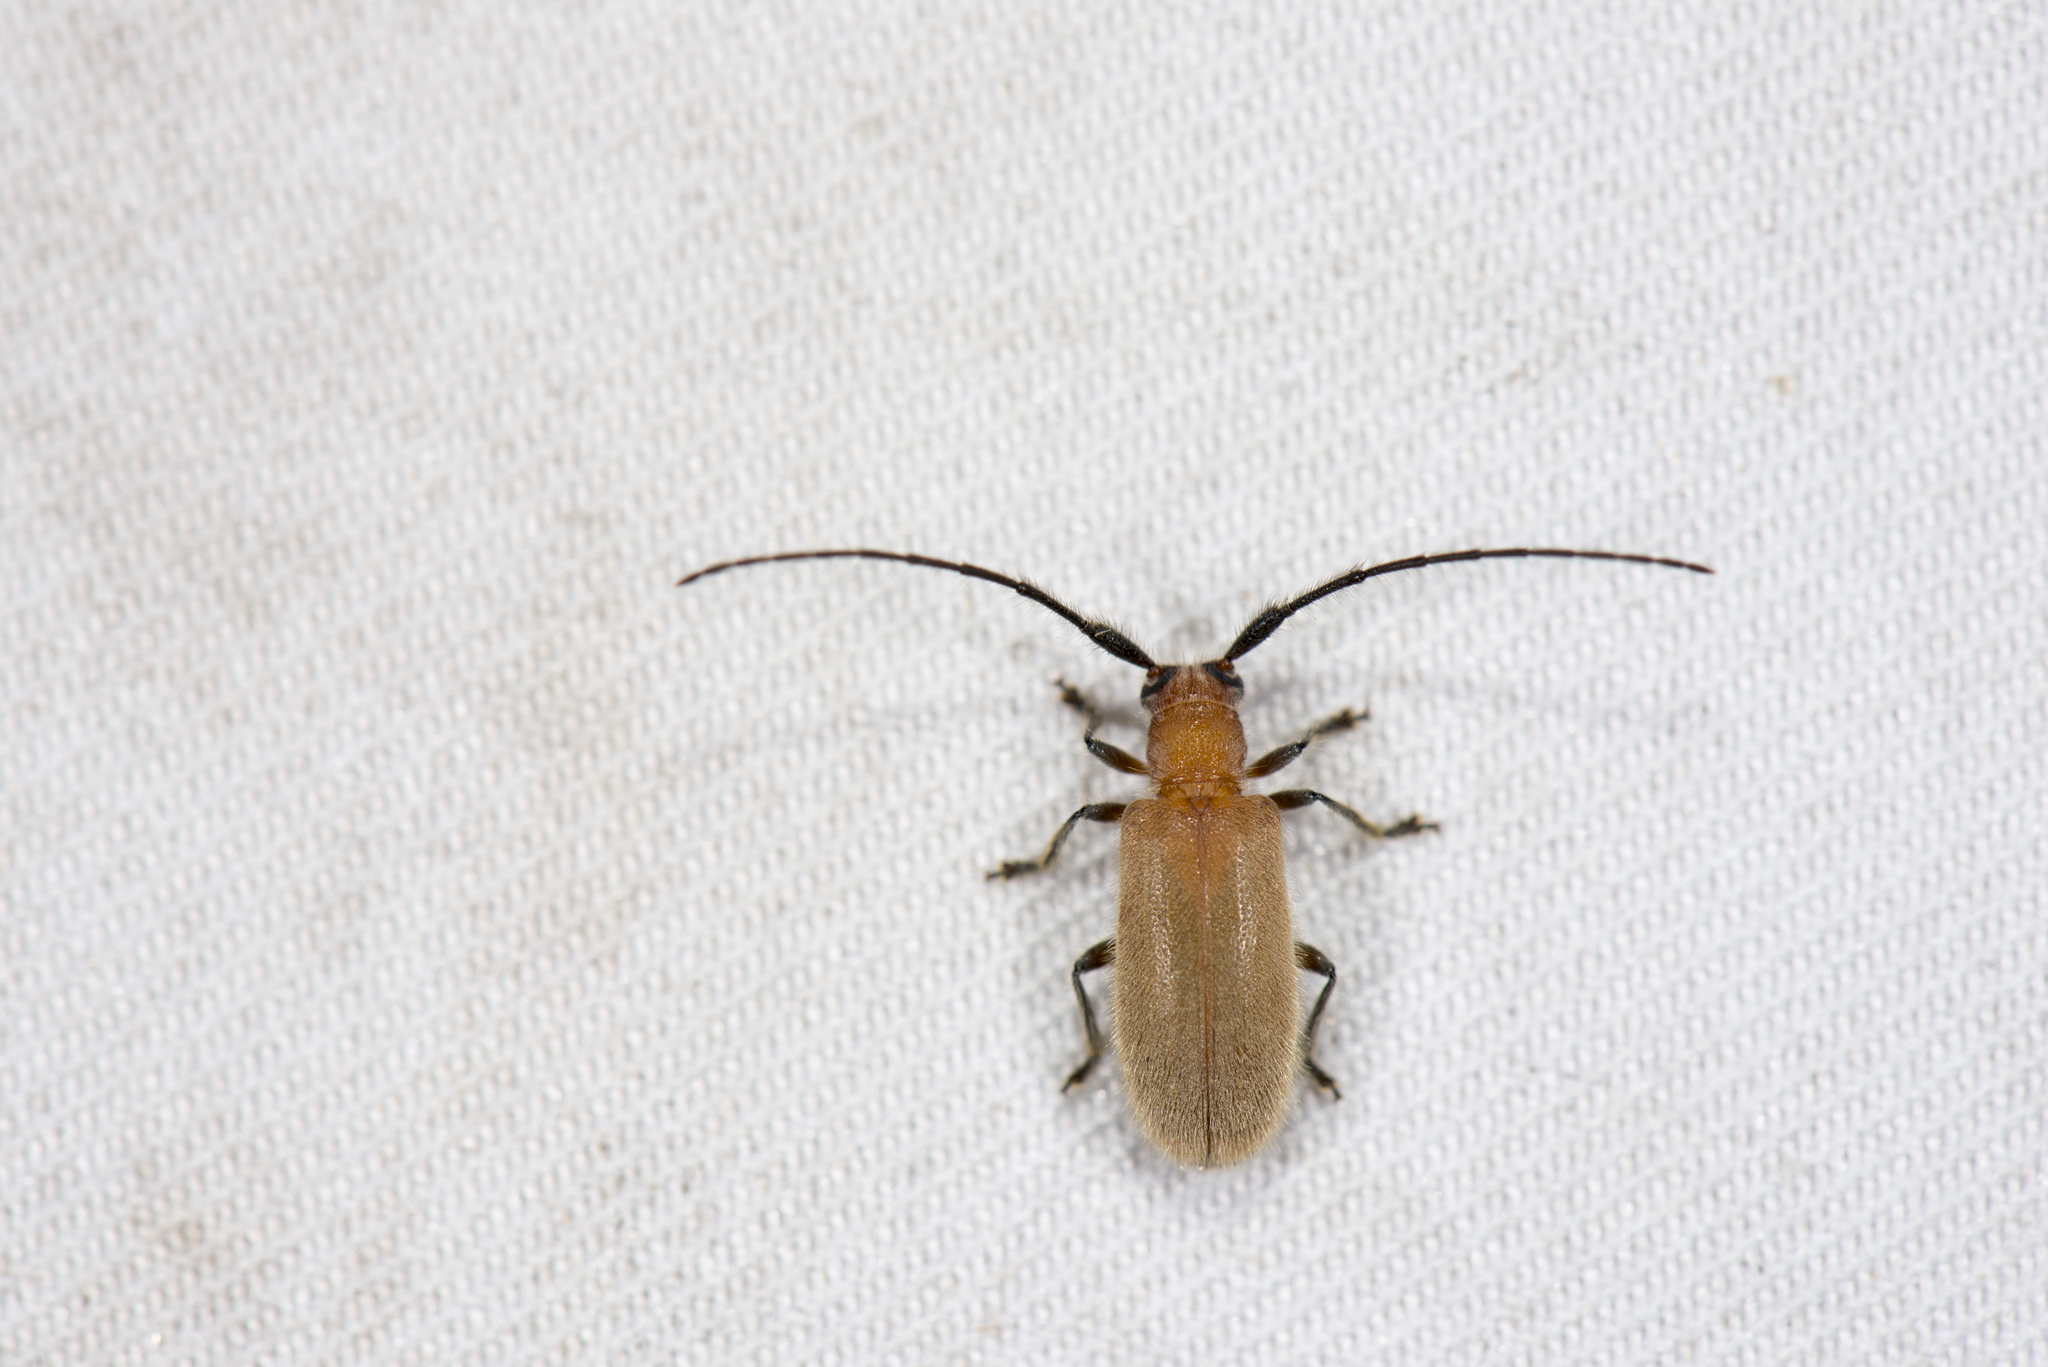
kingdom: Animalia
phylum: Arthropoda
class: Insecta
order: Coleoptera
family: Cerambycidae
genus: Penthides
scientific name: Penthides flavus
